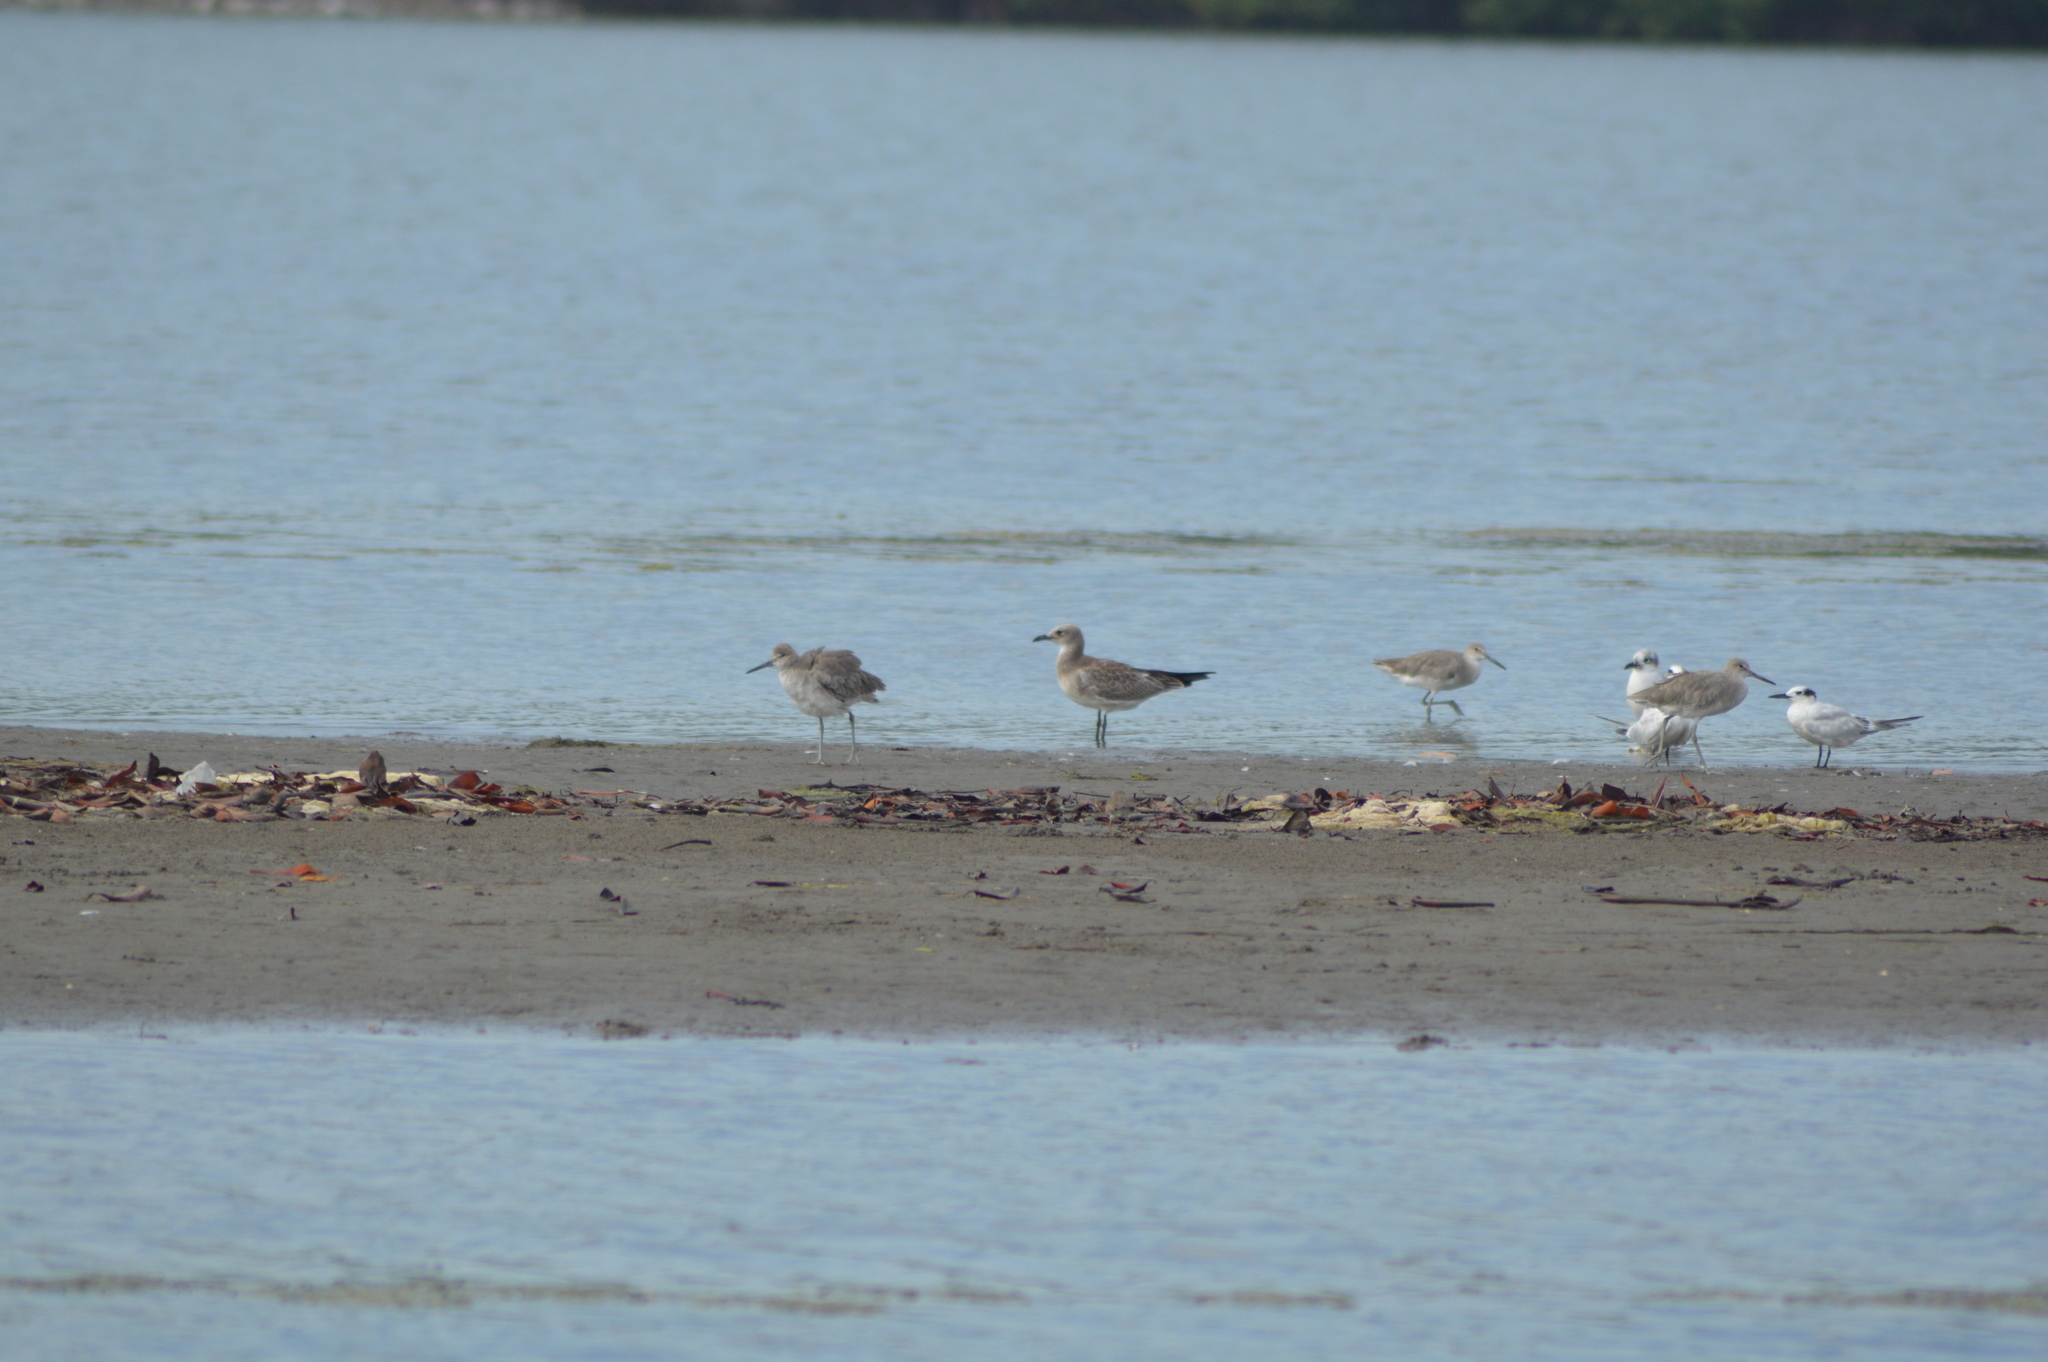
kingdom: Animalia
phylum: Chordata
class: Aves
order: Charadriiformes
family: Scolopacidae
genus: Tringa
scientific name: Tringa semipalmata
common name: Willet
